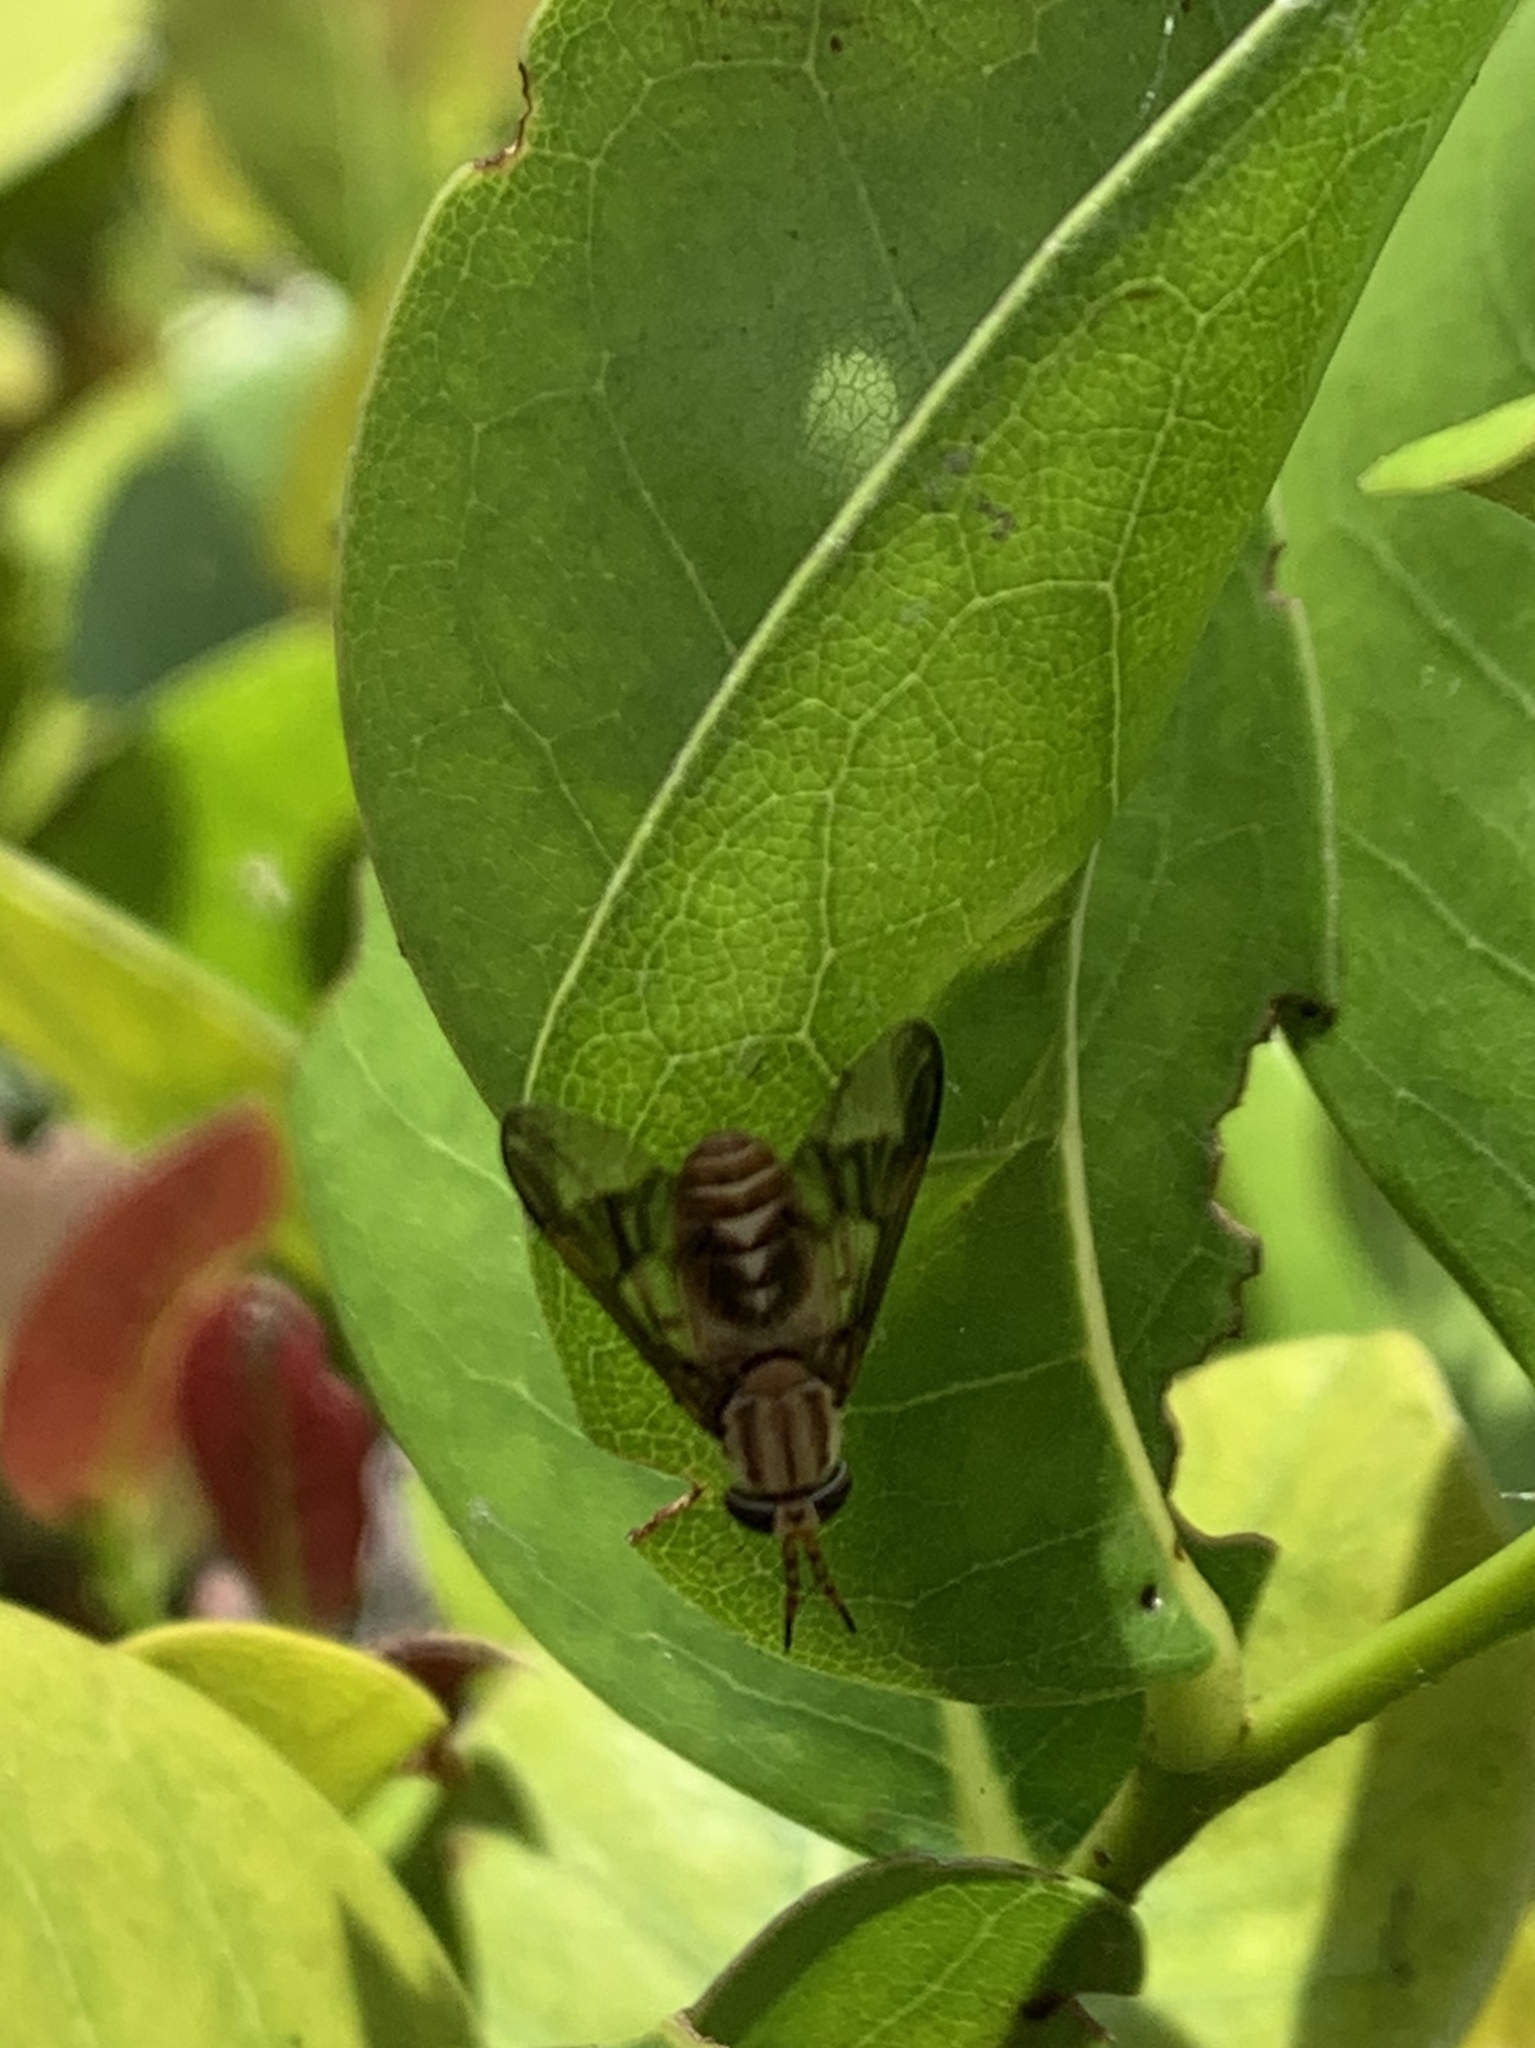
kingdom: Animalia
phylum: Arthropoda
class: Insecta
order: Diptera
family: Tabanidae
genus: Chrysops
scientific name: Chrysops flavidus
